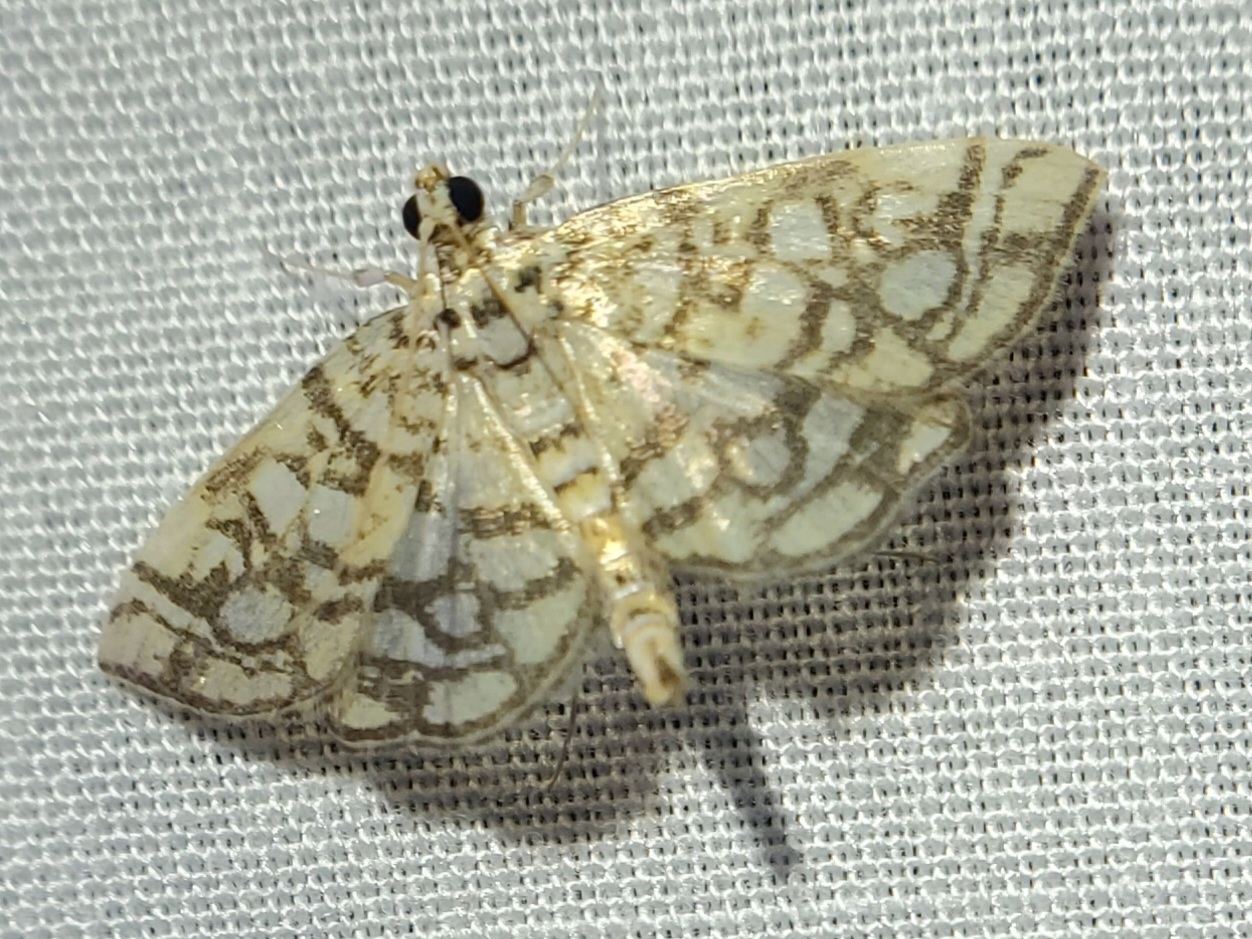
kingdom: Animalia
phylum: Arthropoda
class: Insecta
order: Lepidoptera
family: Crambidae
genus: Lygropia
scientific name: Lygropia rivulalis
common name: Bog lygropia moth
